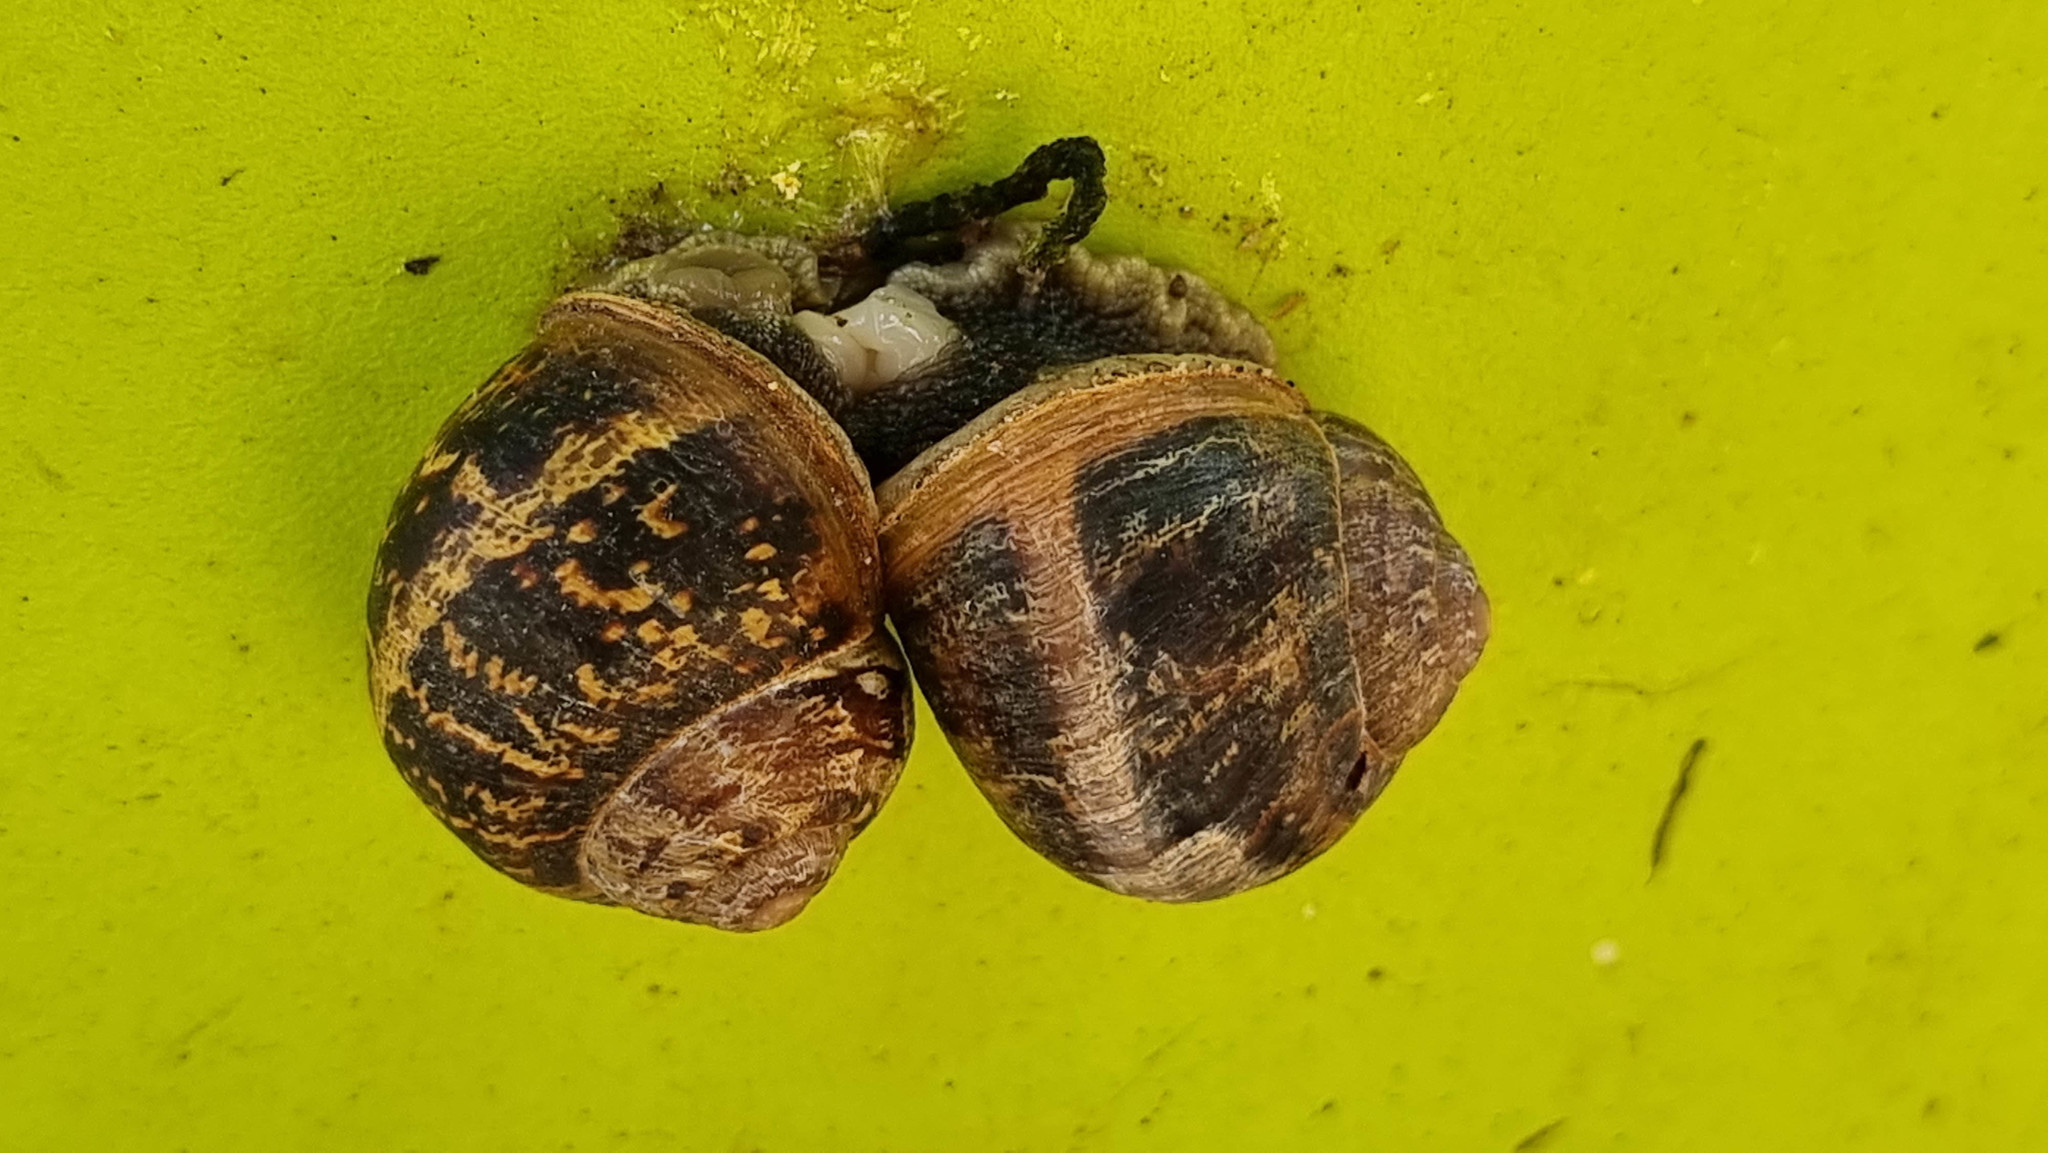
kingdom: Animalia
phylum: Mollusca
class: Gastropoda
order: Stylommatophora
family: Helicidae
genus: Cornu
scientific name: Cornu aspersum
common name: Brown garden snail
